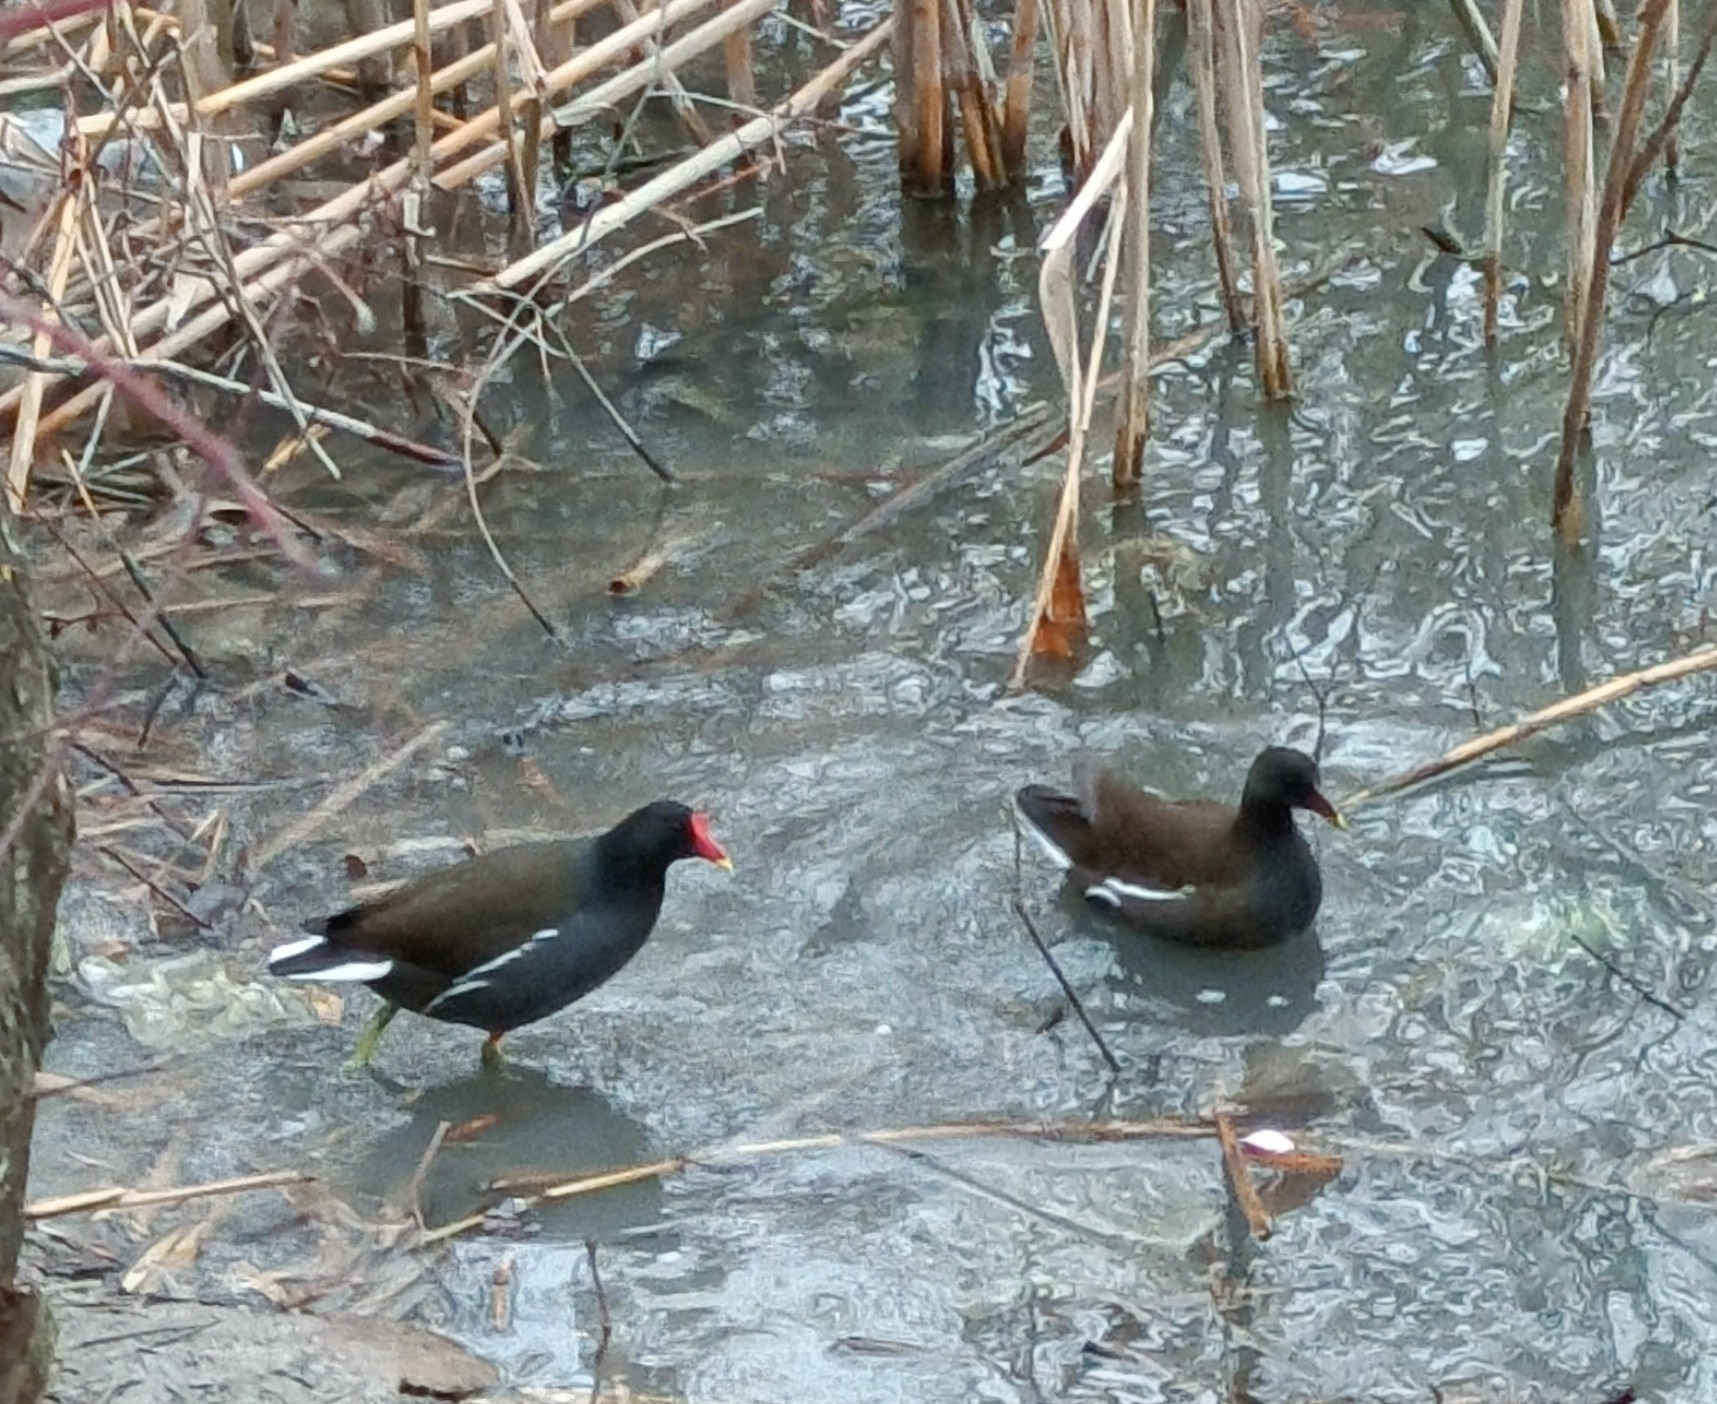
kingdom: Animalia
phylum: Chordata
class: Aves
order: Gruiformes
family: Rallidae
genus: Gallinula
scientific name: Gallinula chloropus
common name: Common moorhen
